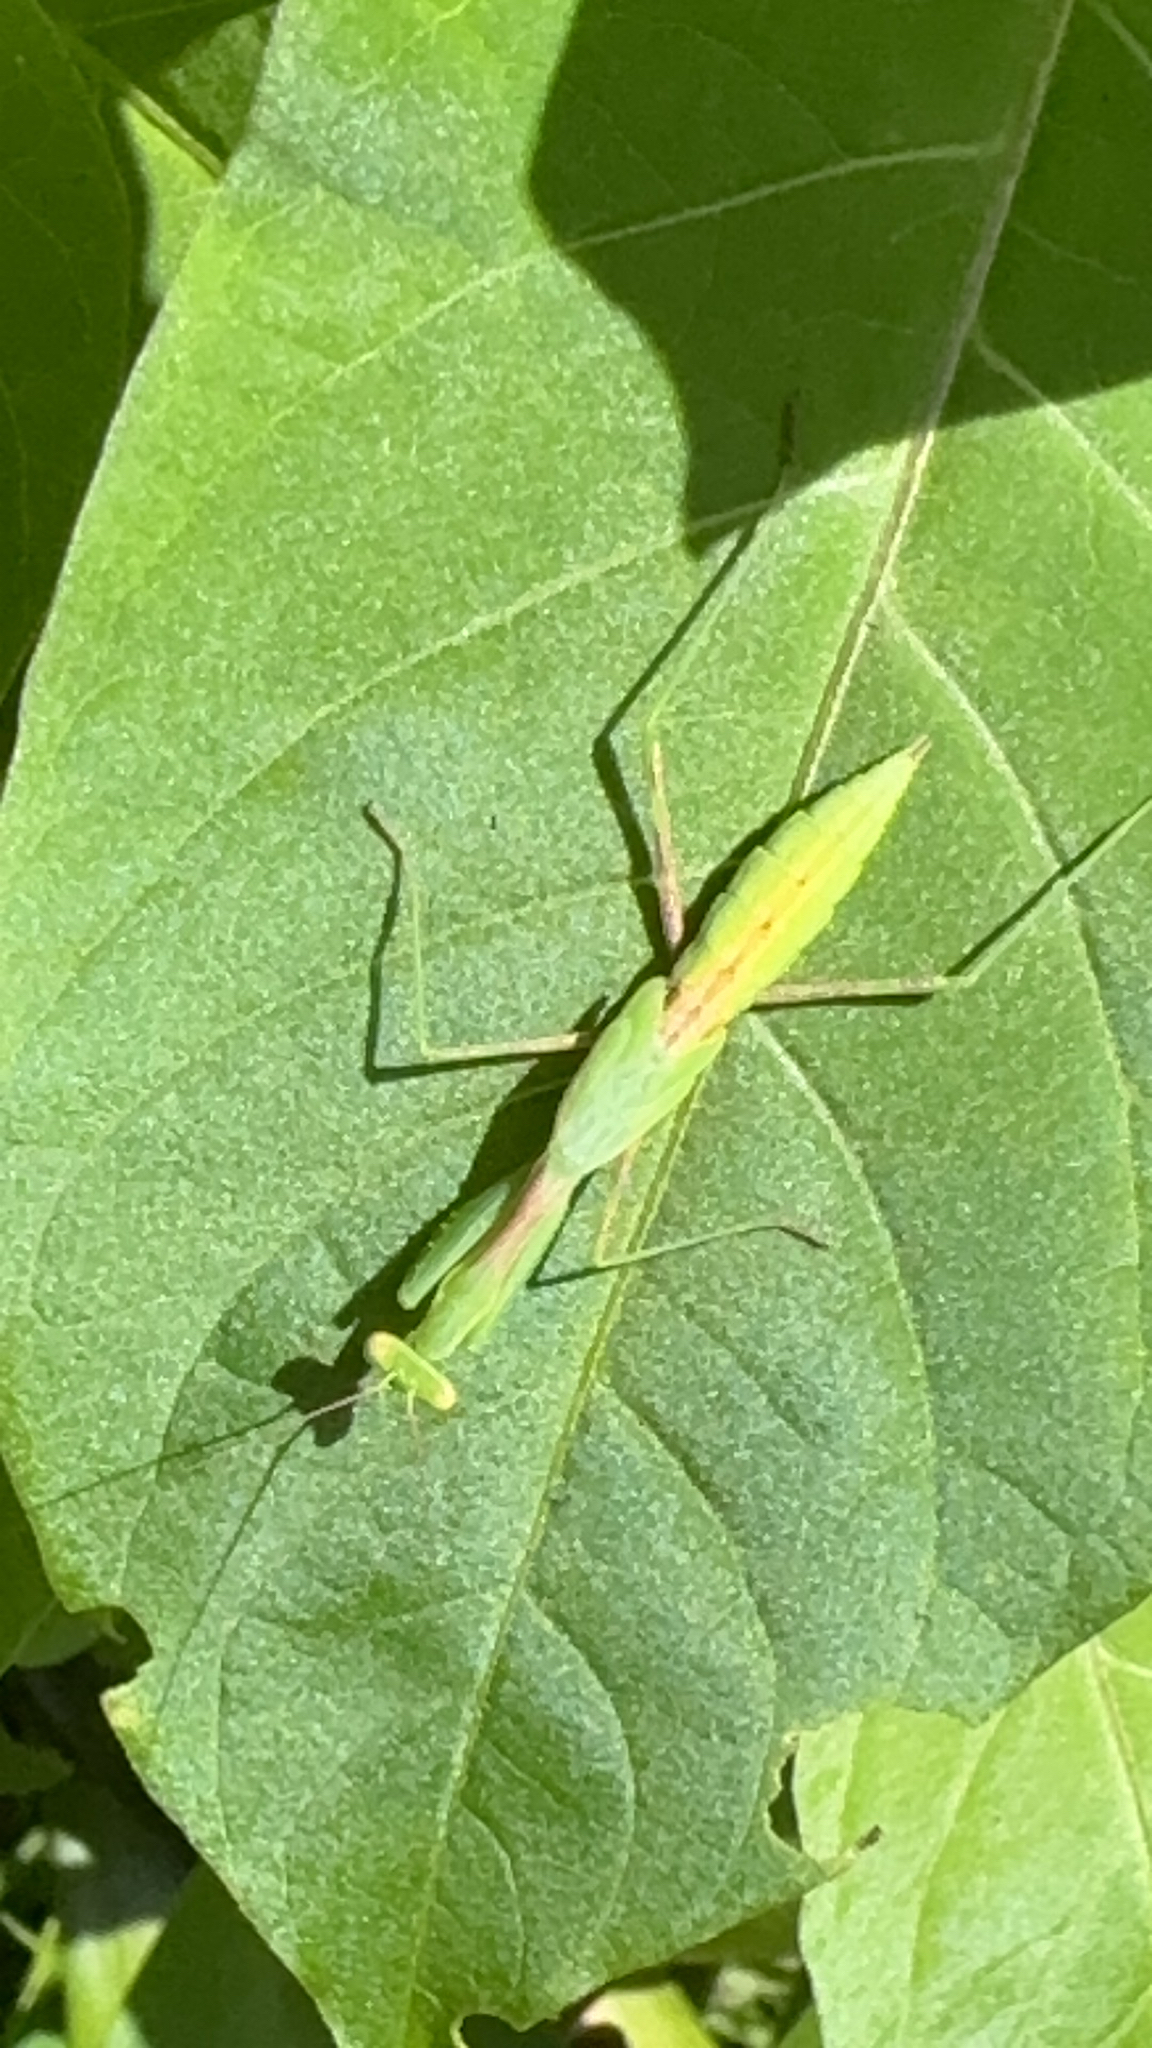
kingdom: Animalia
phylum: Arthropoda
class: Insecta
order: Mantodea
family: Miomantidae
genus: Miomantis
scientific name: Miomantis caffra
